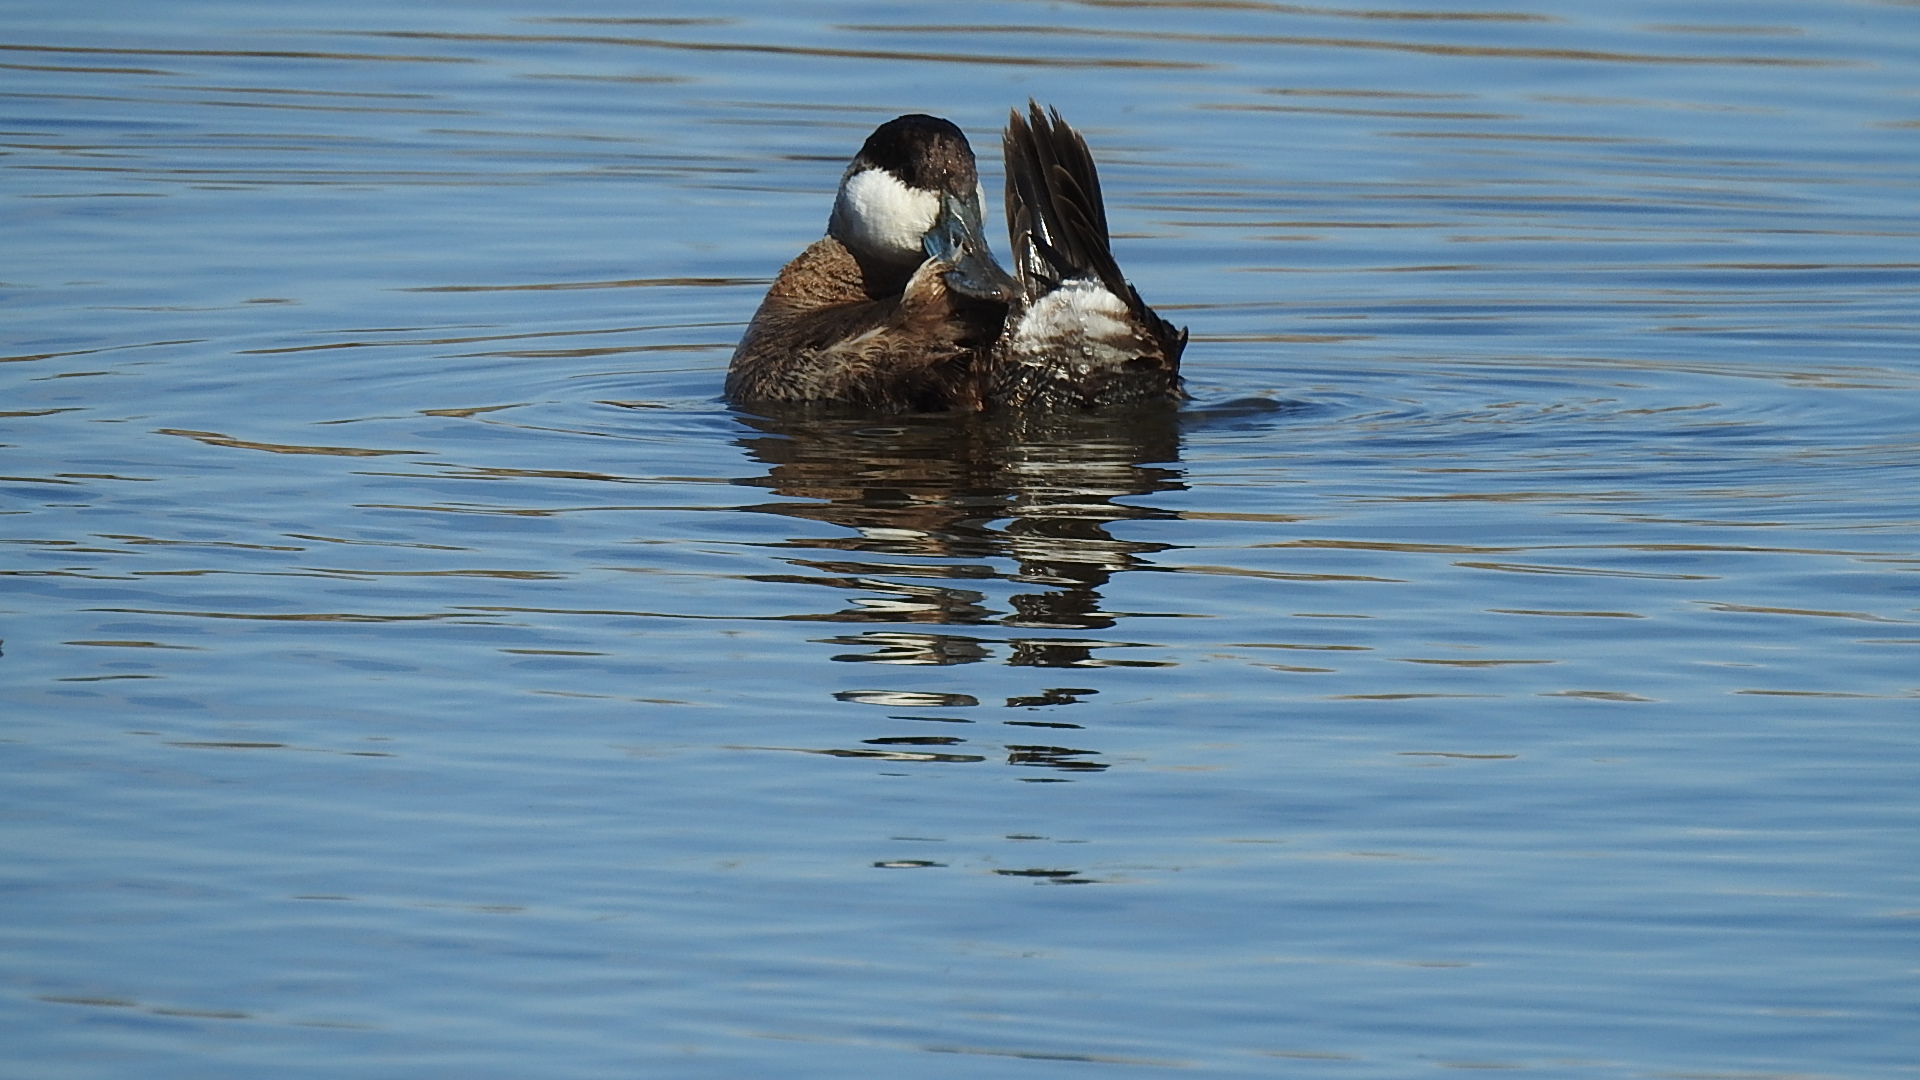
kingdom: Animalia
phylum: Chordata
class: Aves
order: Anseriformes
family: Anatidae
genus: Oxyura
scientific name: Oxyura jamaicensis
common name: Ruddy duck
